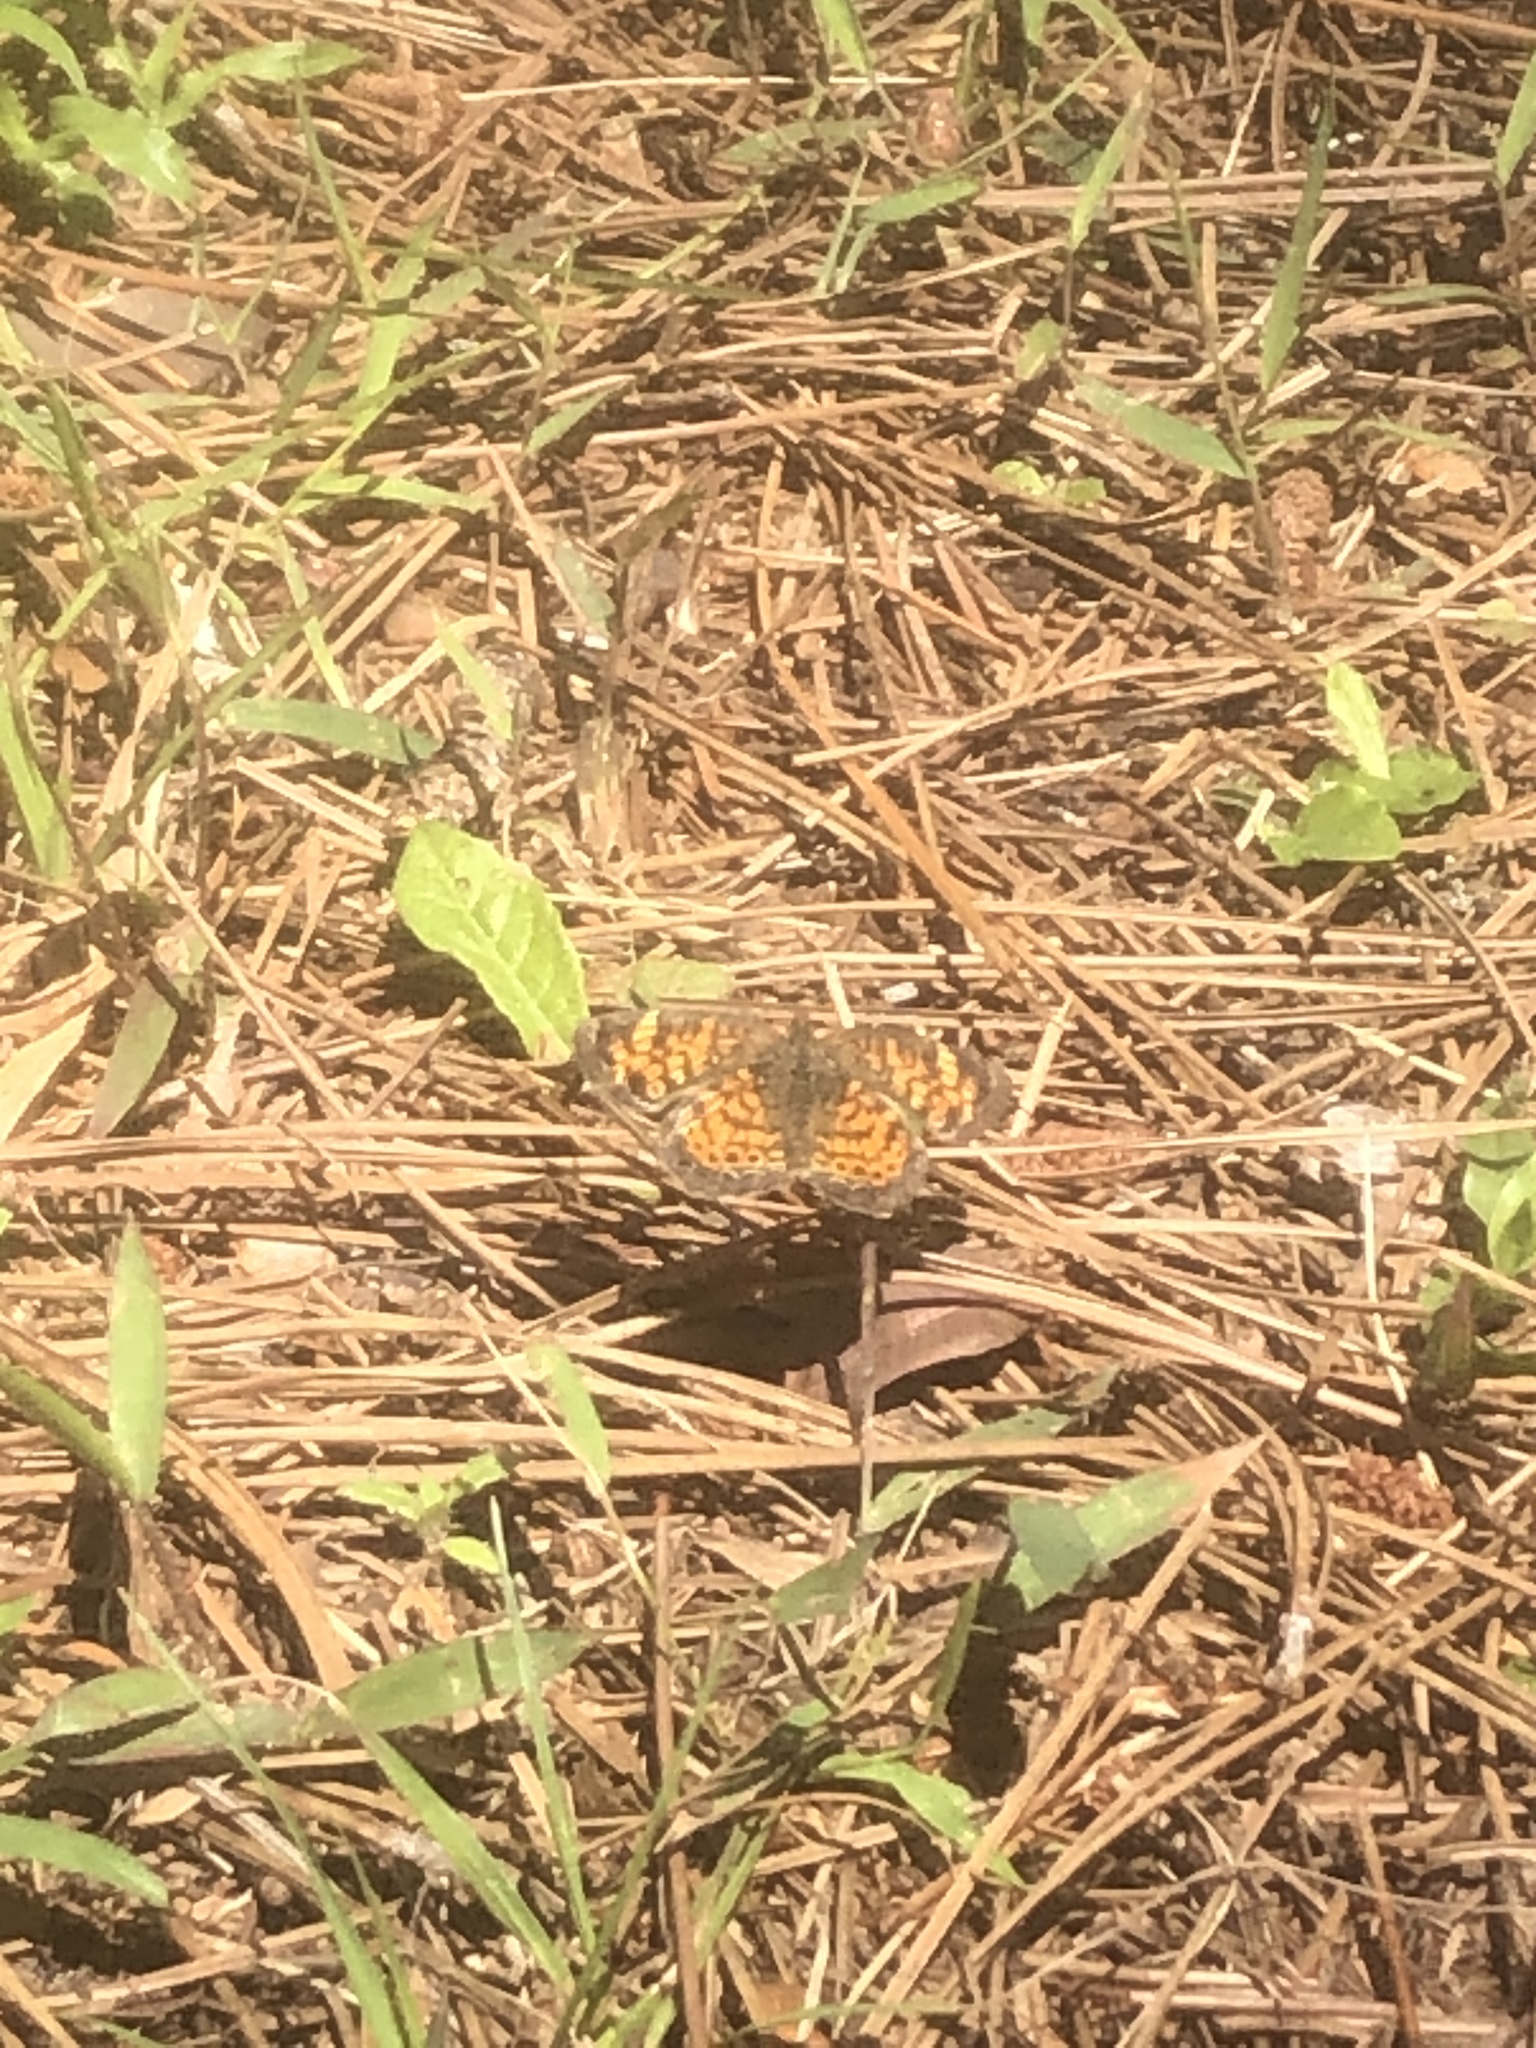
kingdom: Animalia
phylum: Arthropoda
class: Insecta
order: Lepidoptera
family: Nymphalidae
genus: Phyciodes
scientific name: Phyciodes tharos
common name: Pearl crescent
